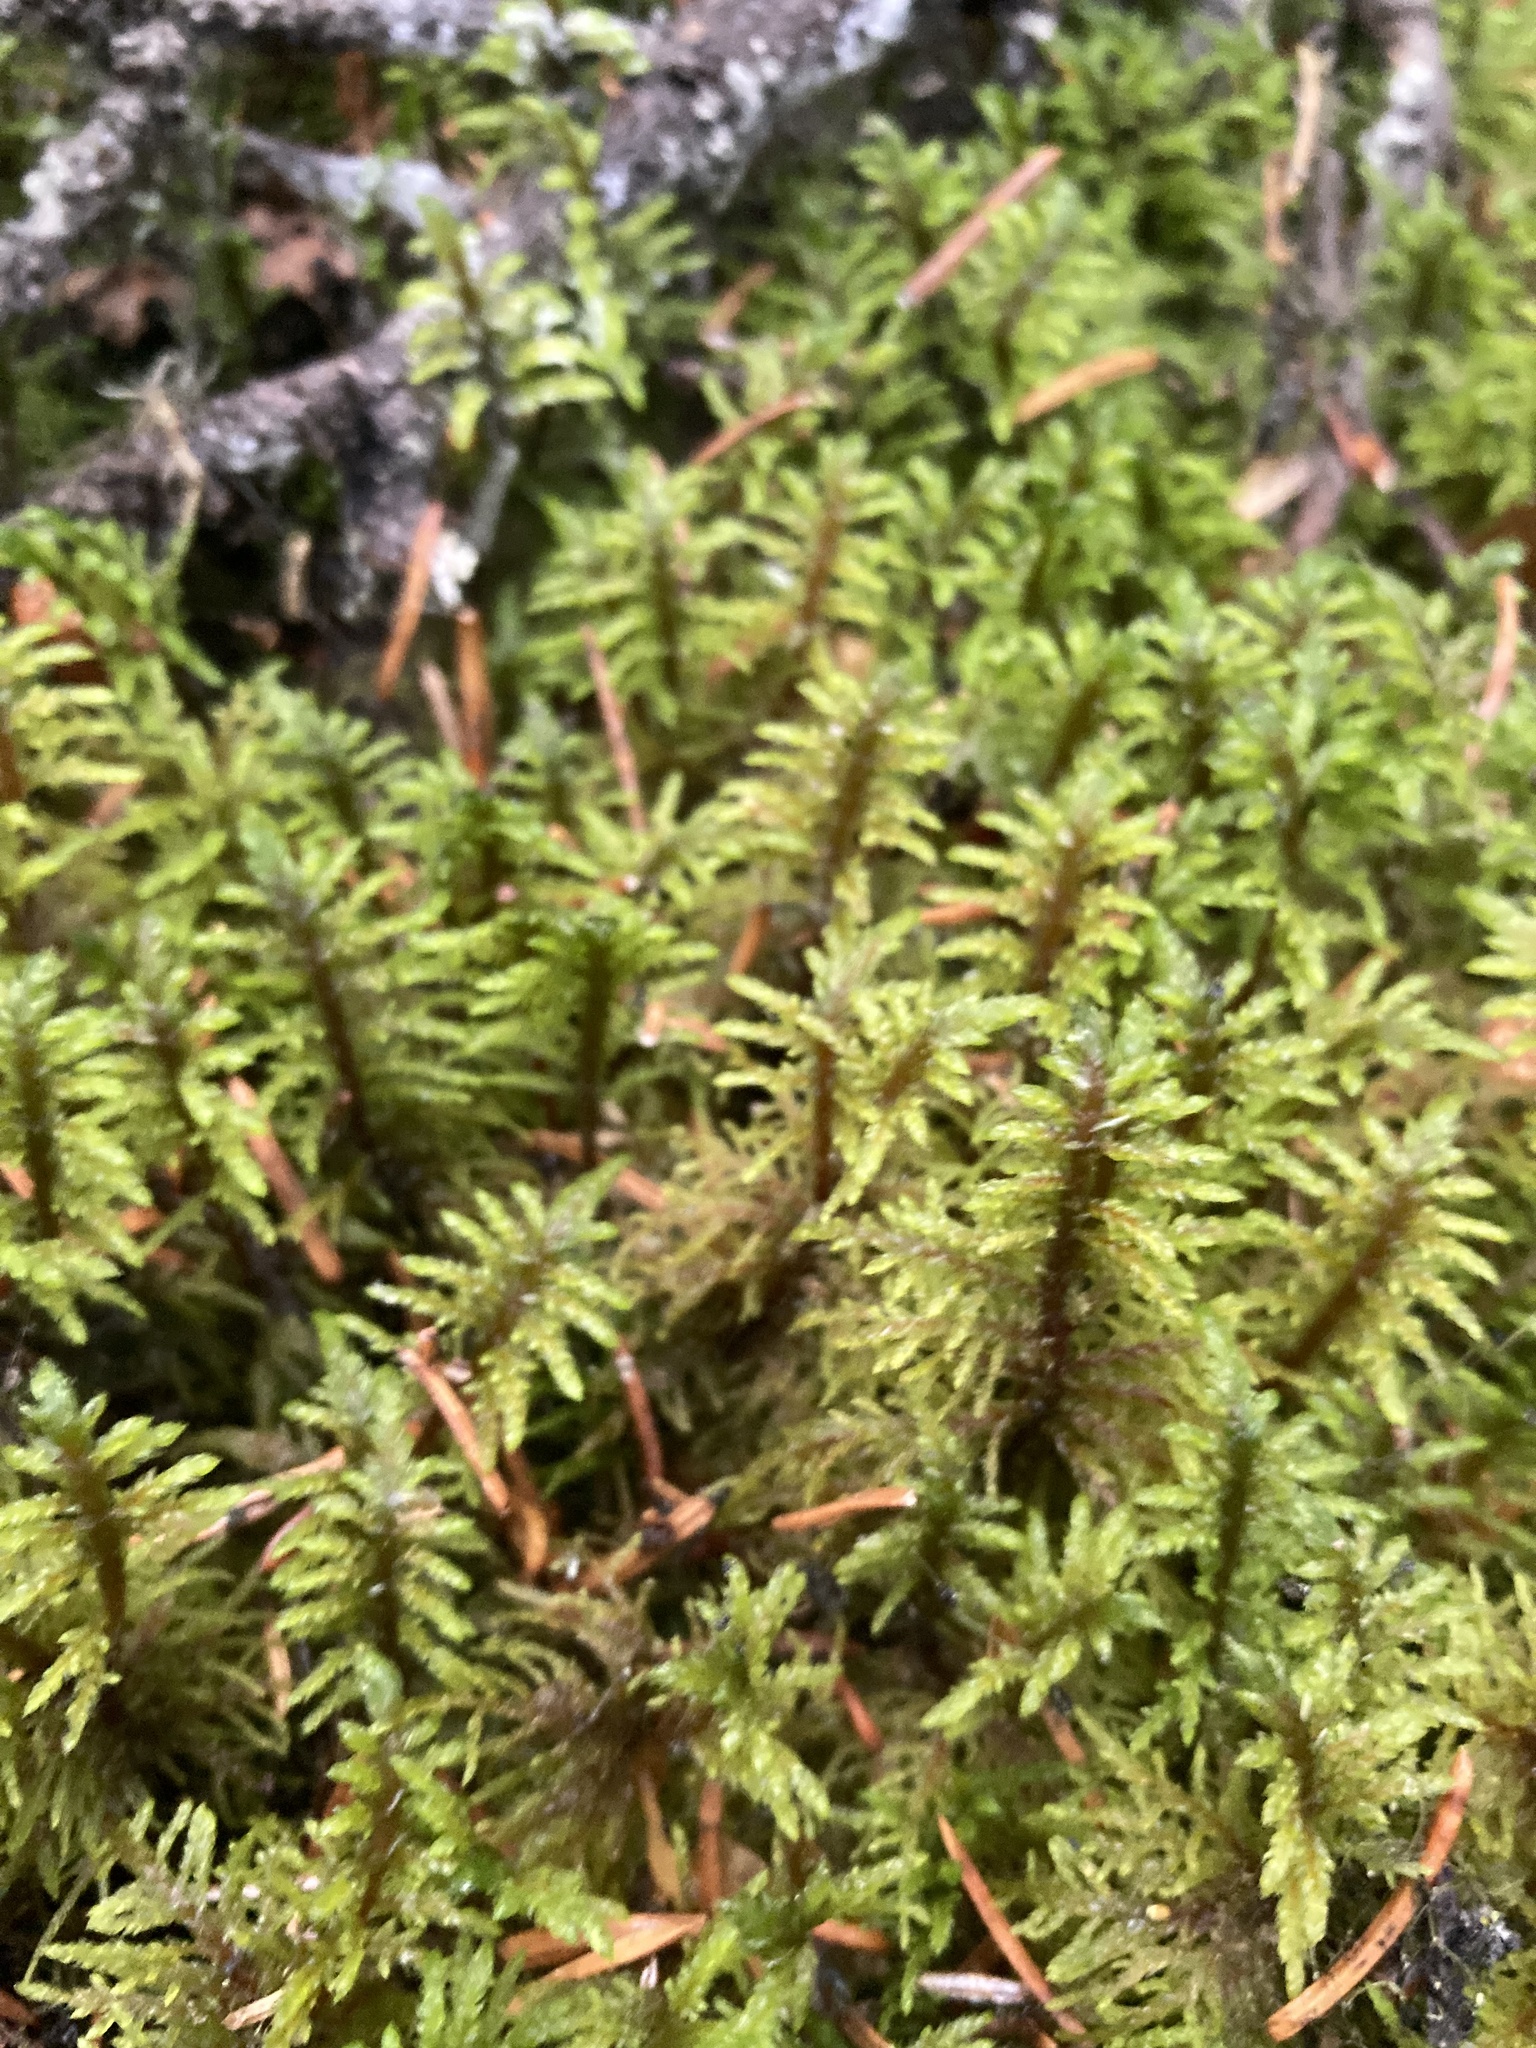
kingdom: Plantae
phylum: Bryophyta
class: Bryopsida
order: Hypnales
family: Hylocomiaceae
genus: Hylocomium
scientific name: Hylocomium splendens
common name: Stairstep moss
